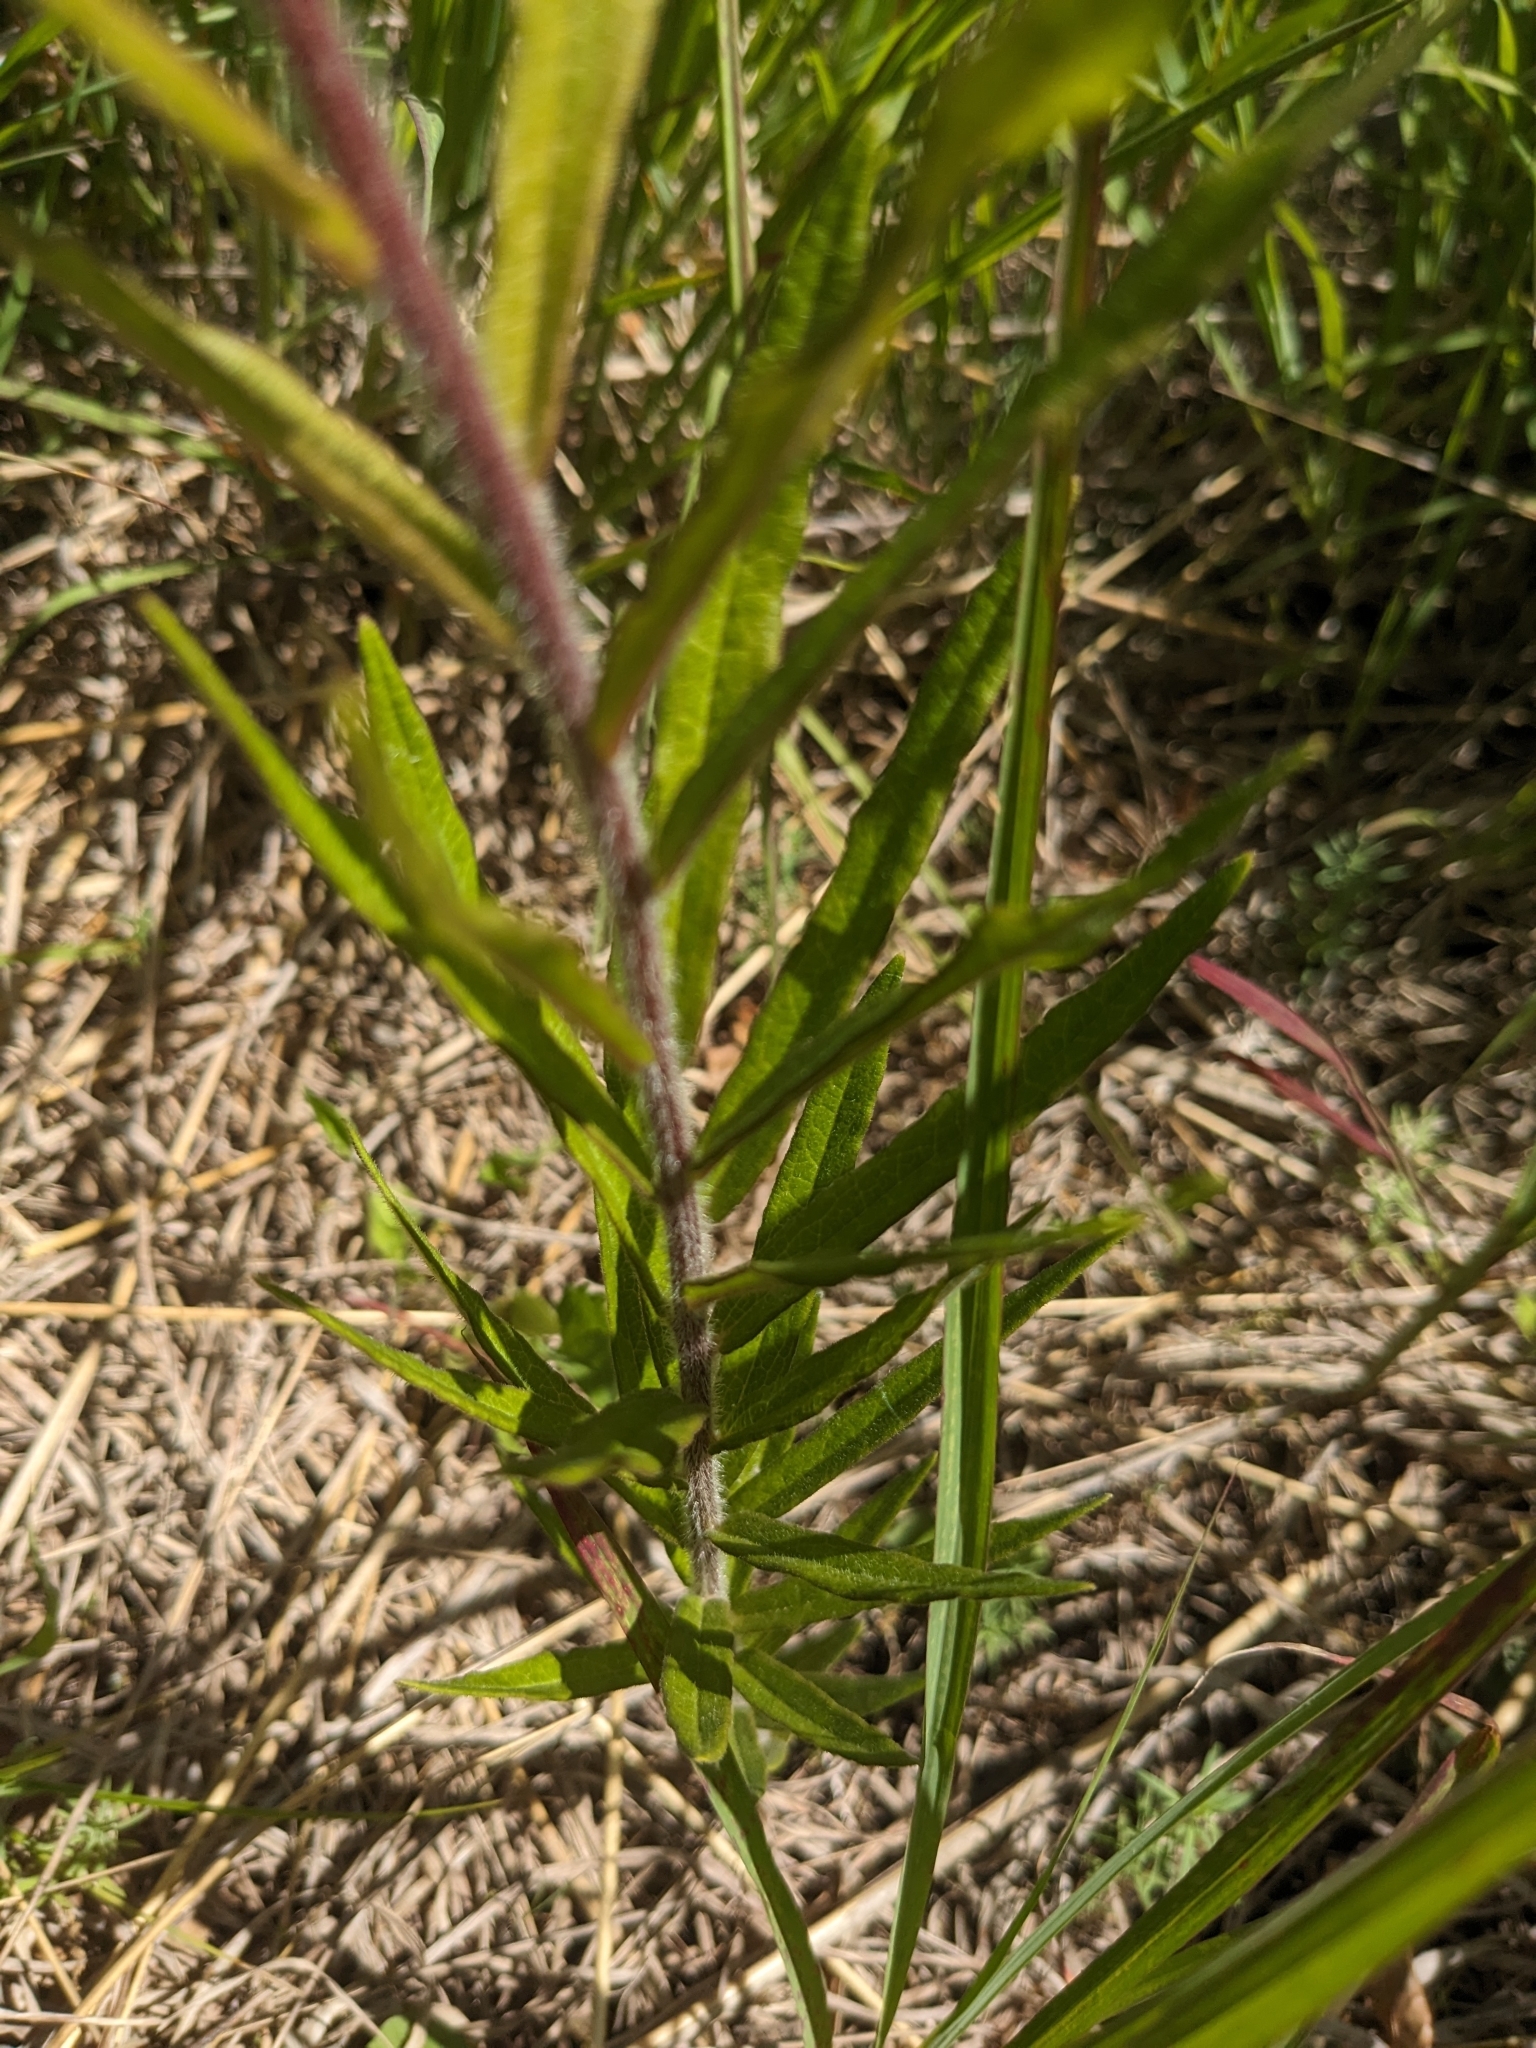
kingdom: Plantae
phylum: Tracheophyta
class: Magnoliopsida
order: Gentianales
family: Apocynaceae
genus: Asclepias
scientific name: Asclepias tuberosa
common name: Butterfly milkweed
